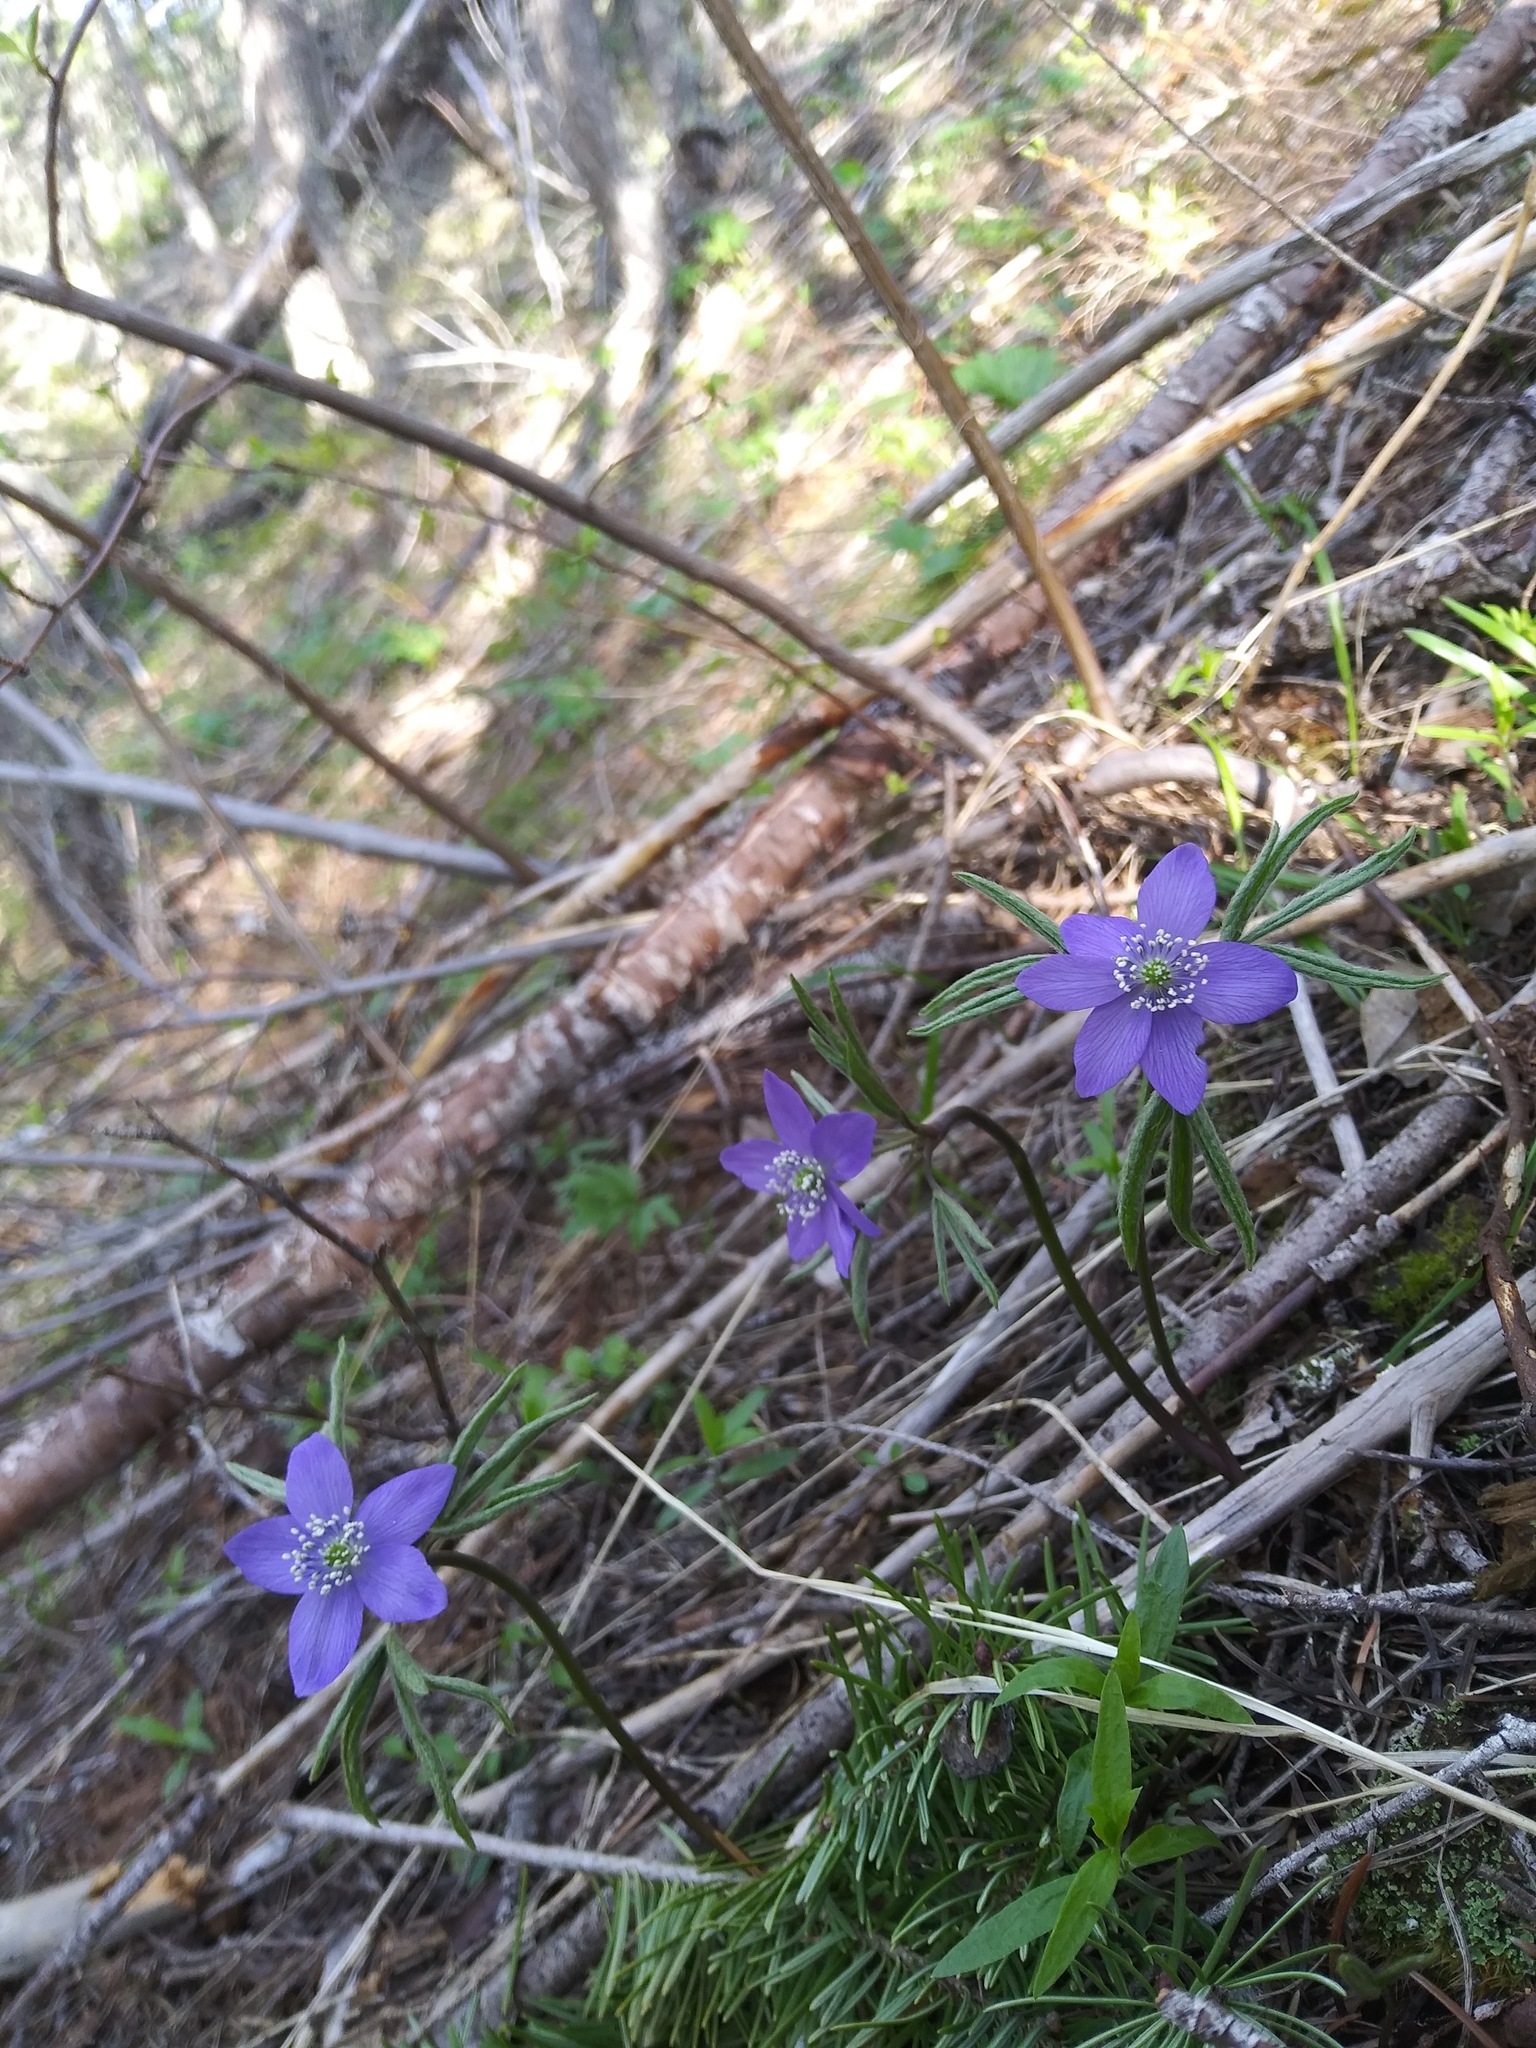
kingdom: Plantae
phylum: Tracheophyta
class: Magnoliopsida
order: Ranunculales
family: Ranunculaceae
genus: Anemone
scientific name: Anemone oregana
